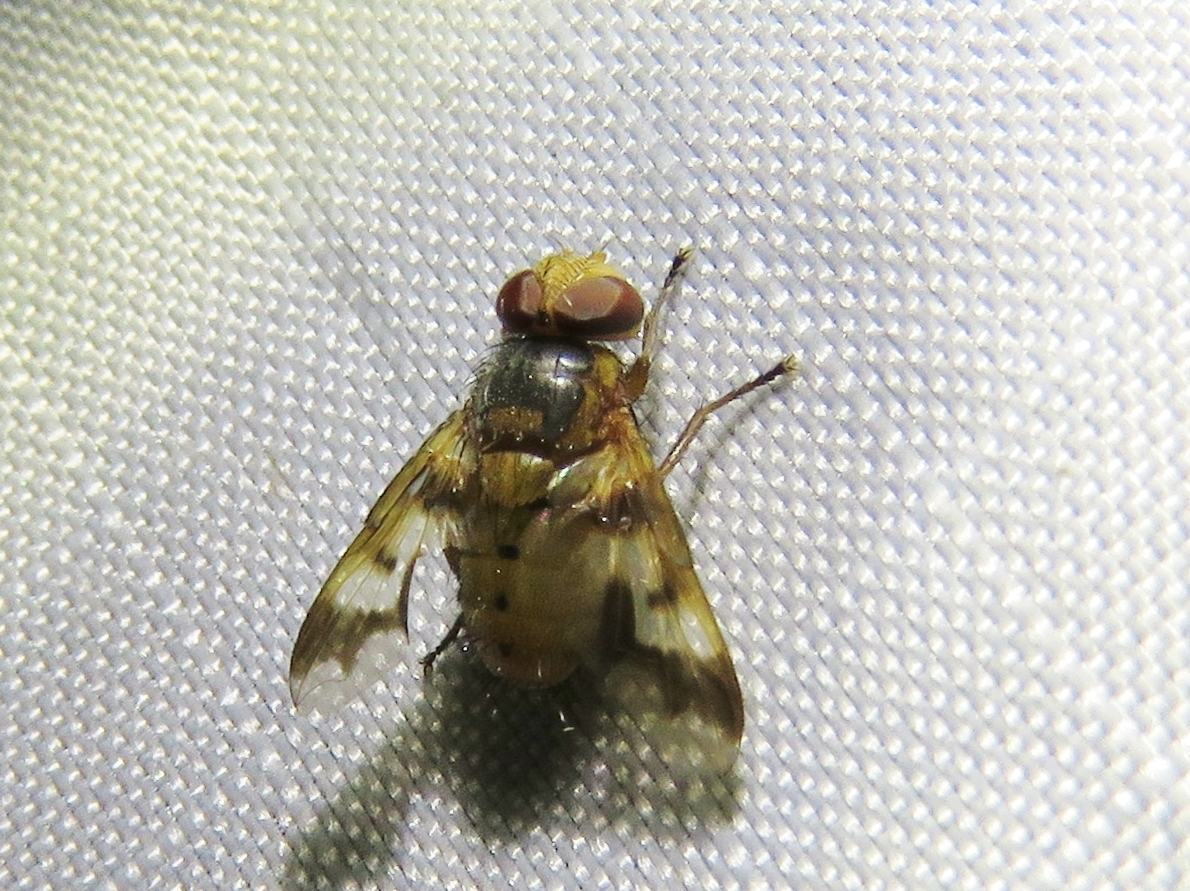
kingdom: Animalia
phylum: Arthropoda
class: Insecta
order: Diptera
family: Tachinidae
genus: Oestrophasia
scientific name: Oestrophasia calva
